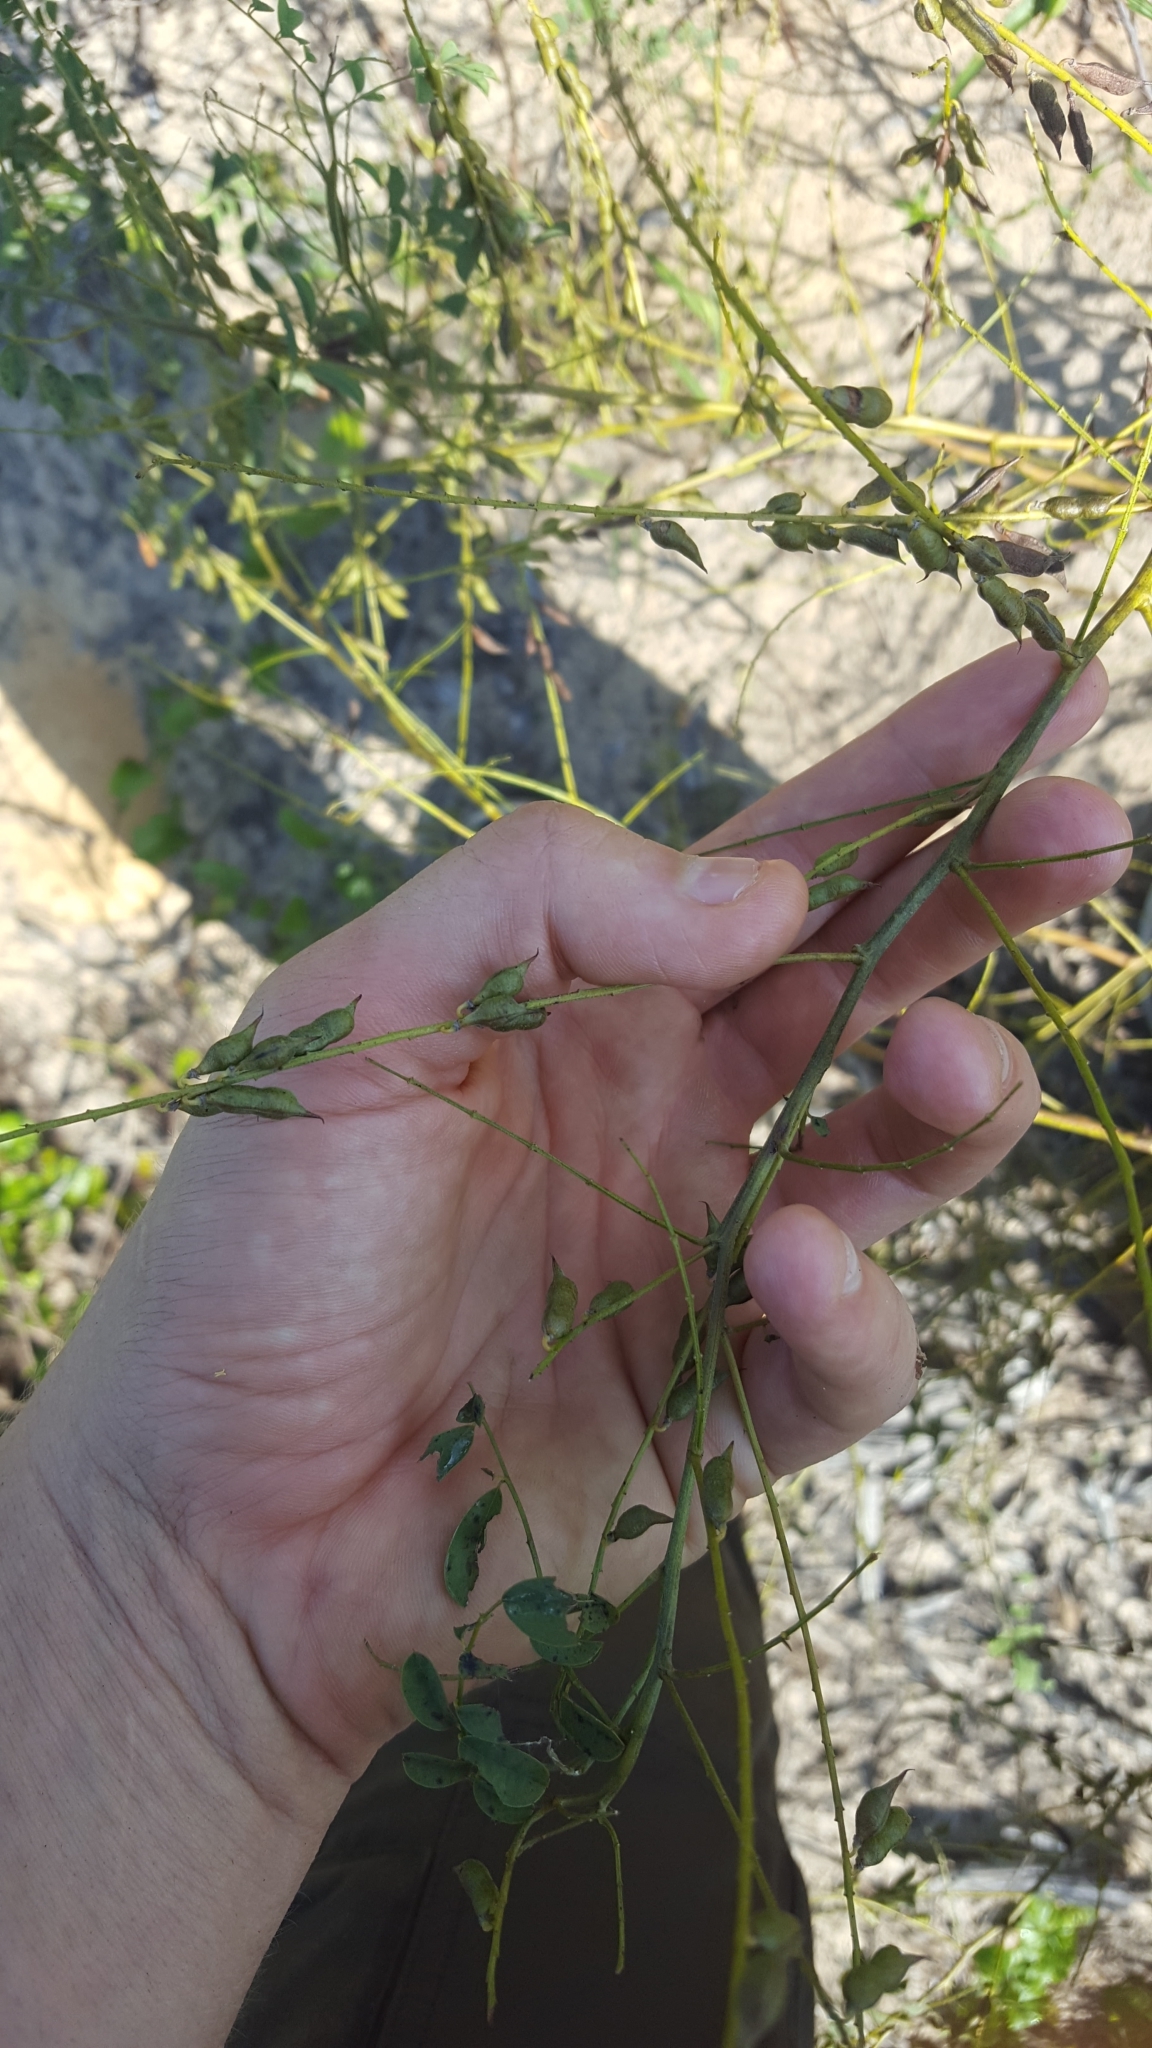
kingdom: Plantae
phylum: Tracheophyta
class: Magnoliopsida
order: Fabales
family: Fabaceae
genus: Indigofera
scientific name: Indigofera caroliniana
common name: Wild indigo
